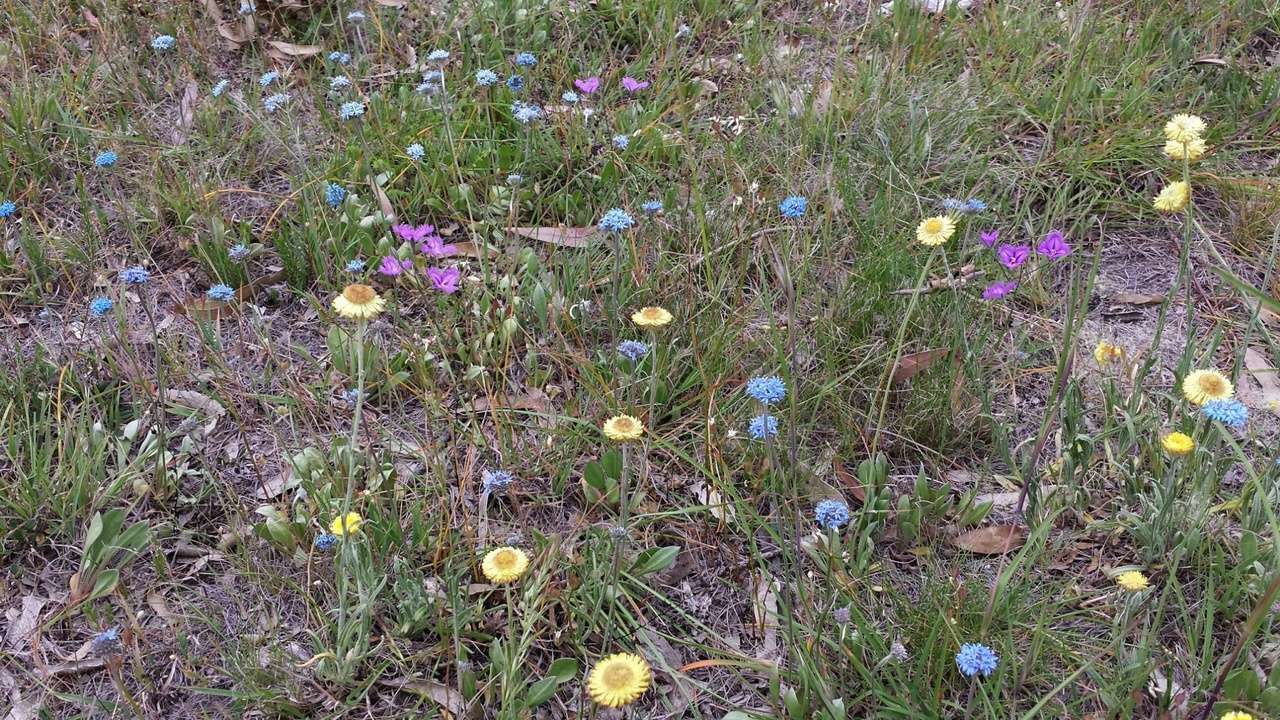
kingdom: Plantae
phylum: Tracheophyta
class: Magnoliopsida
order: Asterales
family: Asteraceae
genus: Coronidium
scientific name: Coronidium scorpioides
